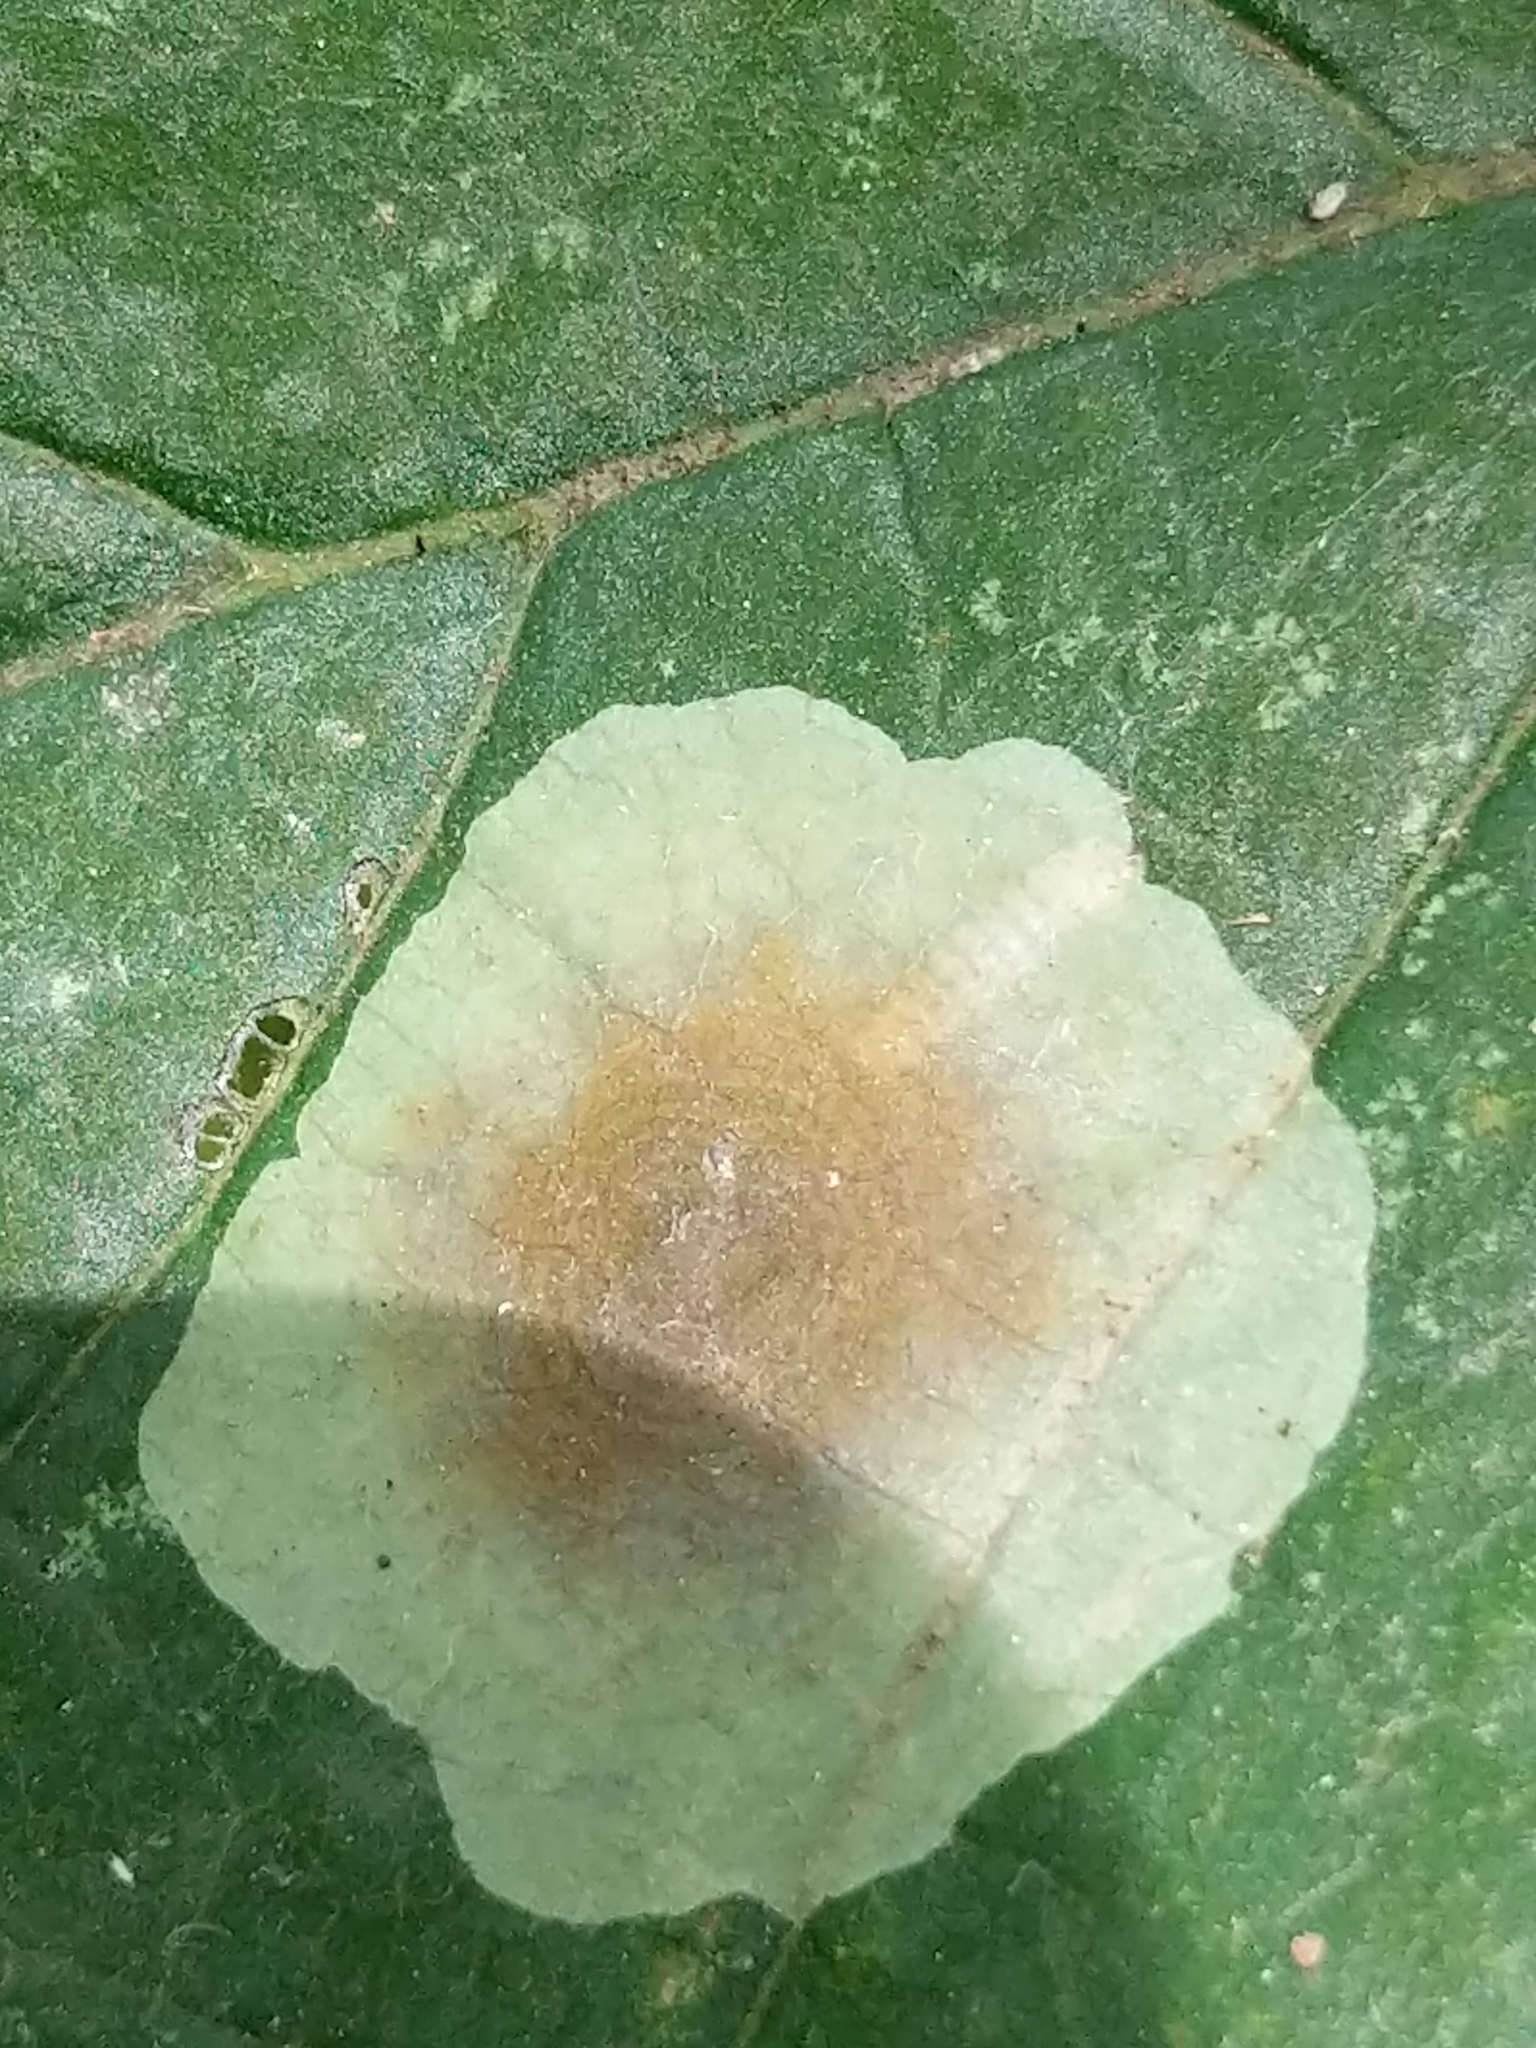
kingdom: Animalia
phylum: Arthropoda
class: Insecta
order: Lepidoptera
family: Gracillariidae
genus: Cameraria
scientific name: Cameraria hamameliella
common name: Witchhazel leafminer
